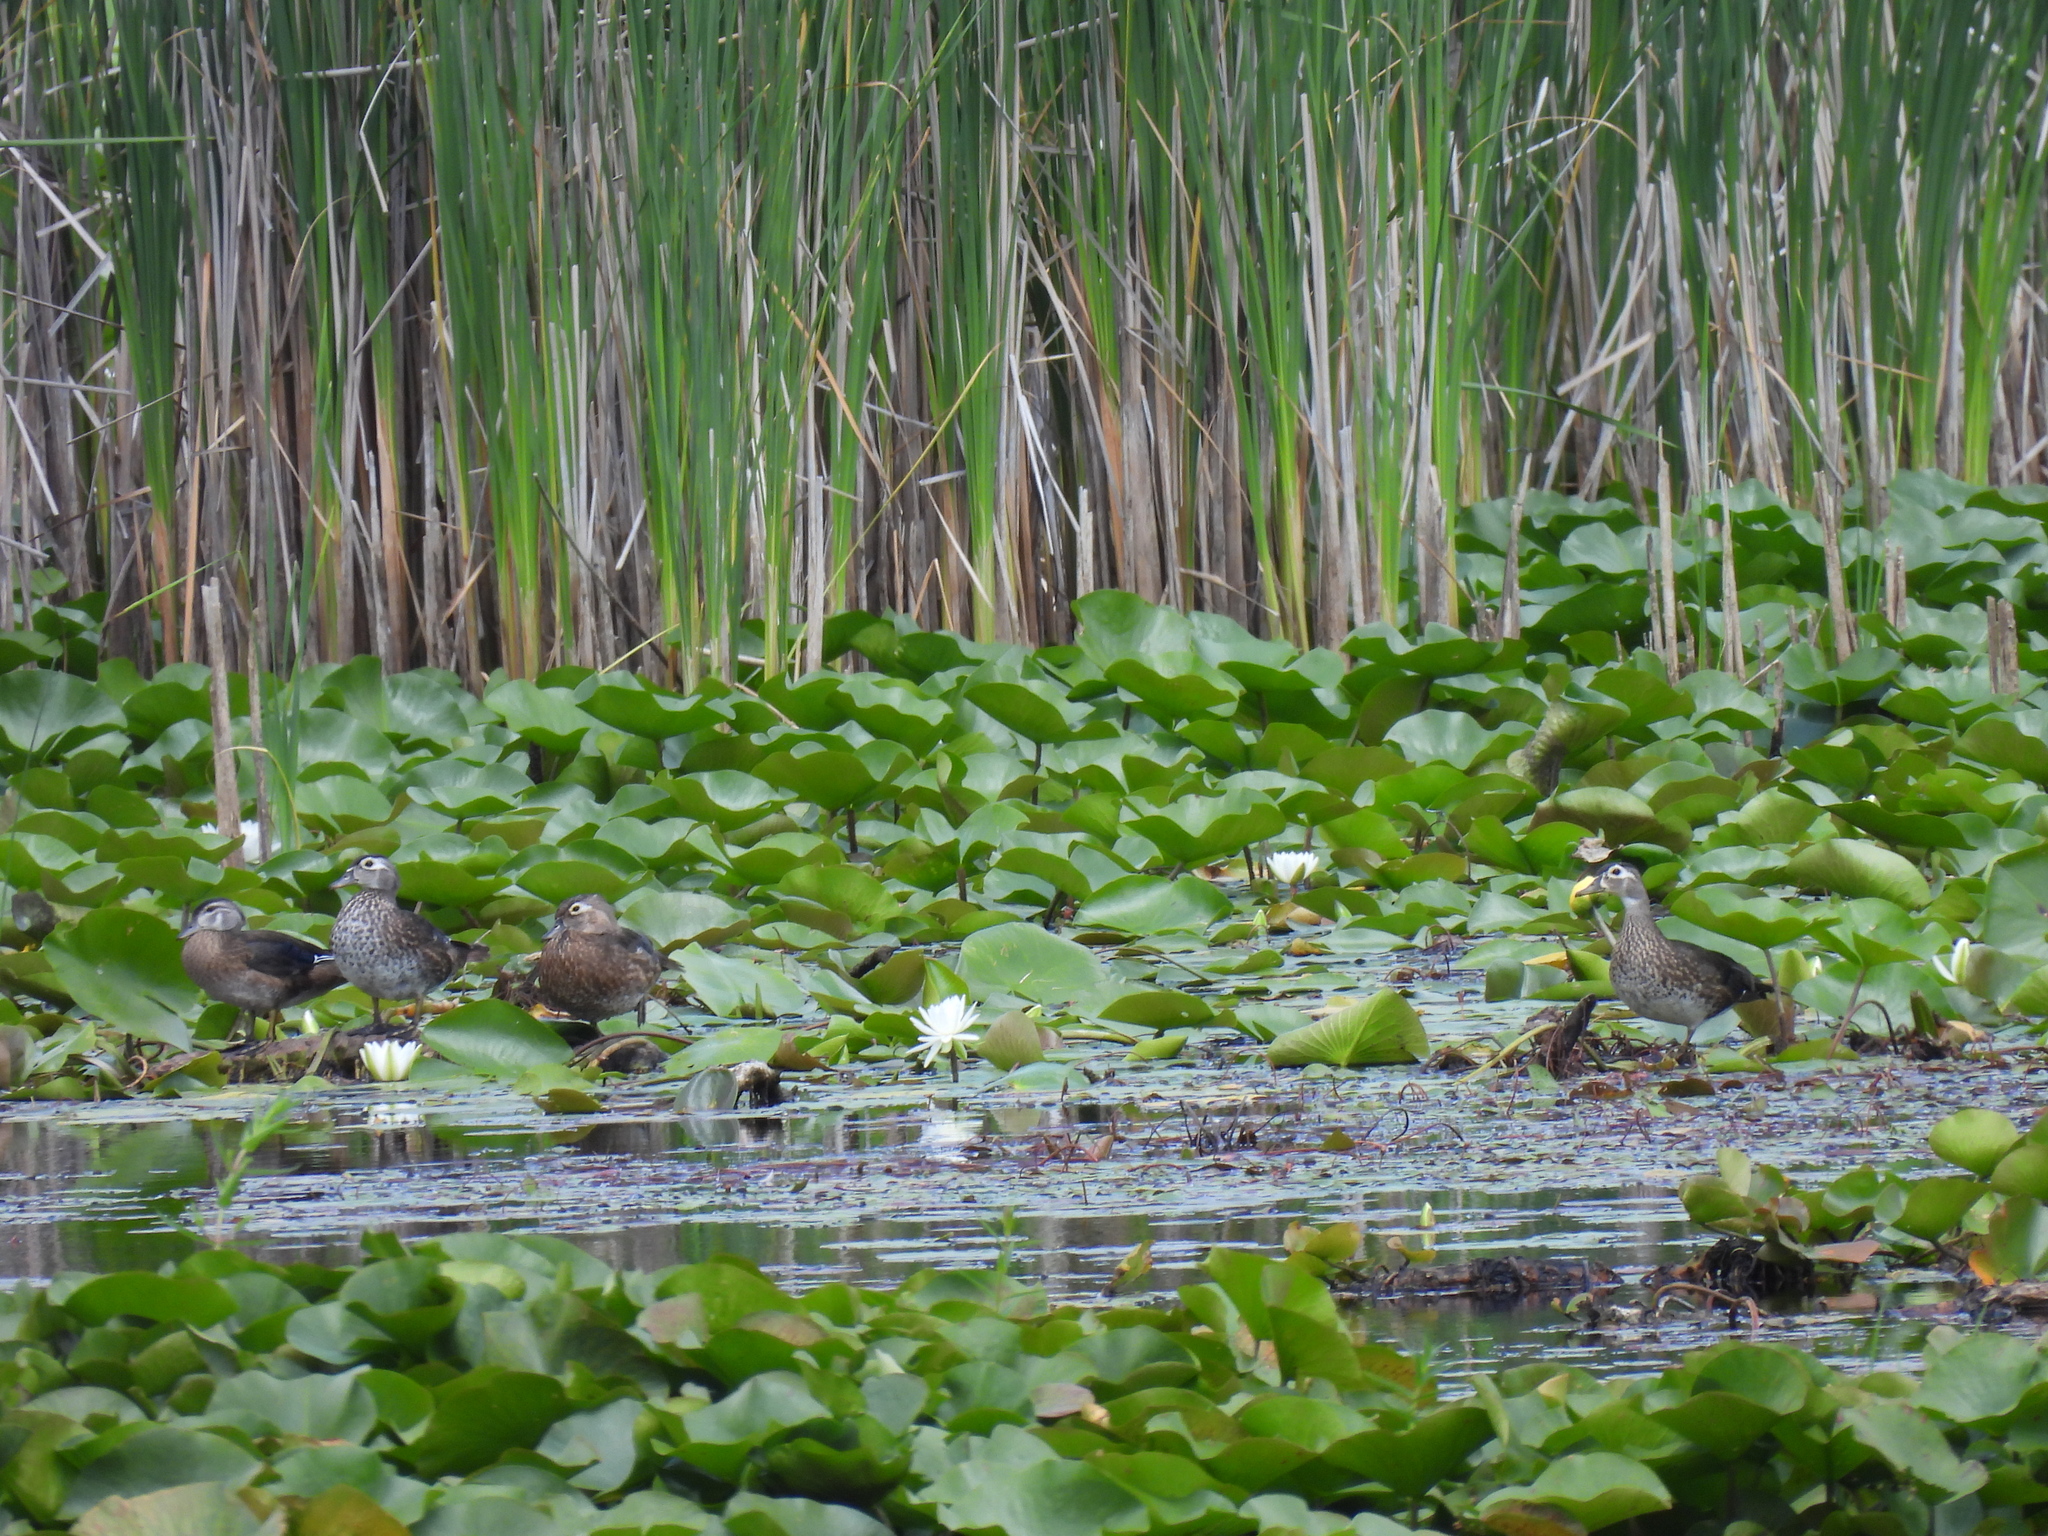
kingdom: Animalia
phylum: Chordata
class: Aves
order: Anseriformes
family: Anatidae
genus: Aix
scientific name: Aix sponsa
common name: Wood duck
